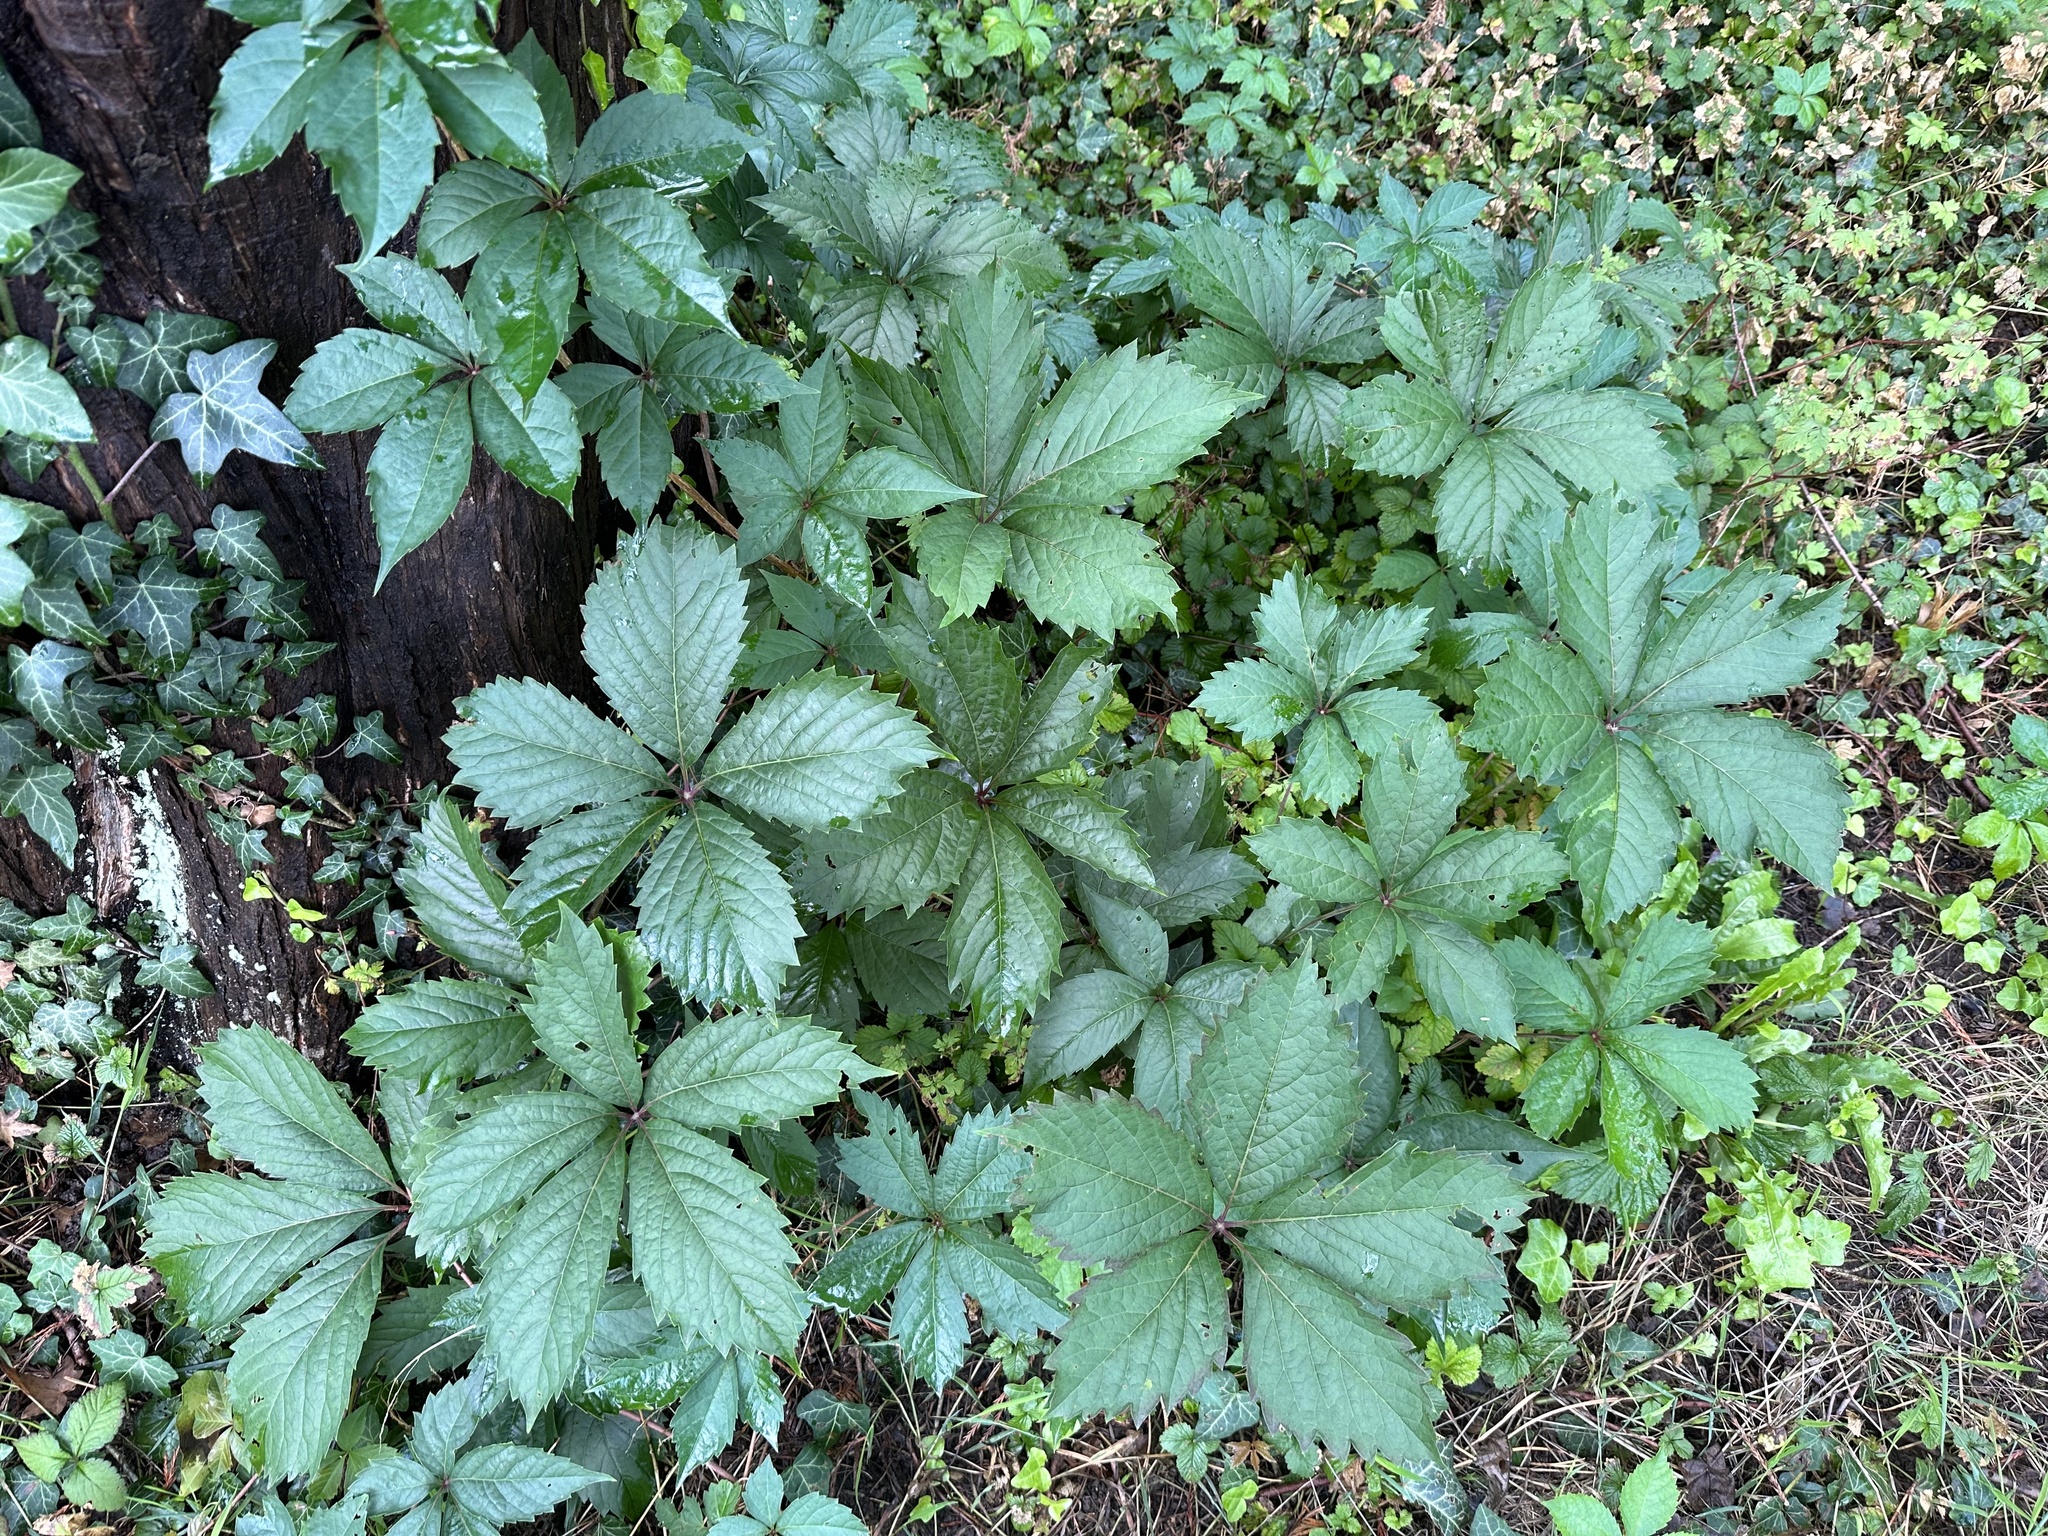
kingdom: Plantae
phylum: Tracheophyta
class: Magnoliopsida
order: Vitales
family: Vitaceae
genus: Parthenocissus
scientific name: Parthenocissus inserta
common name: False virginia-creeper
